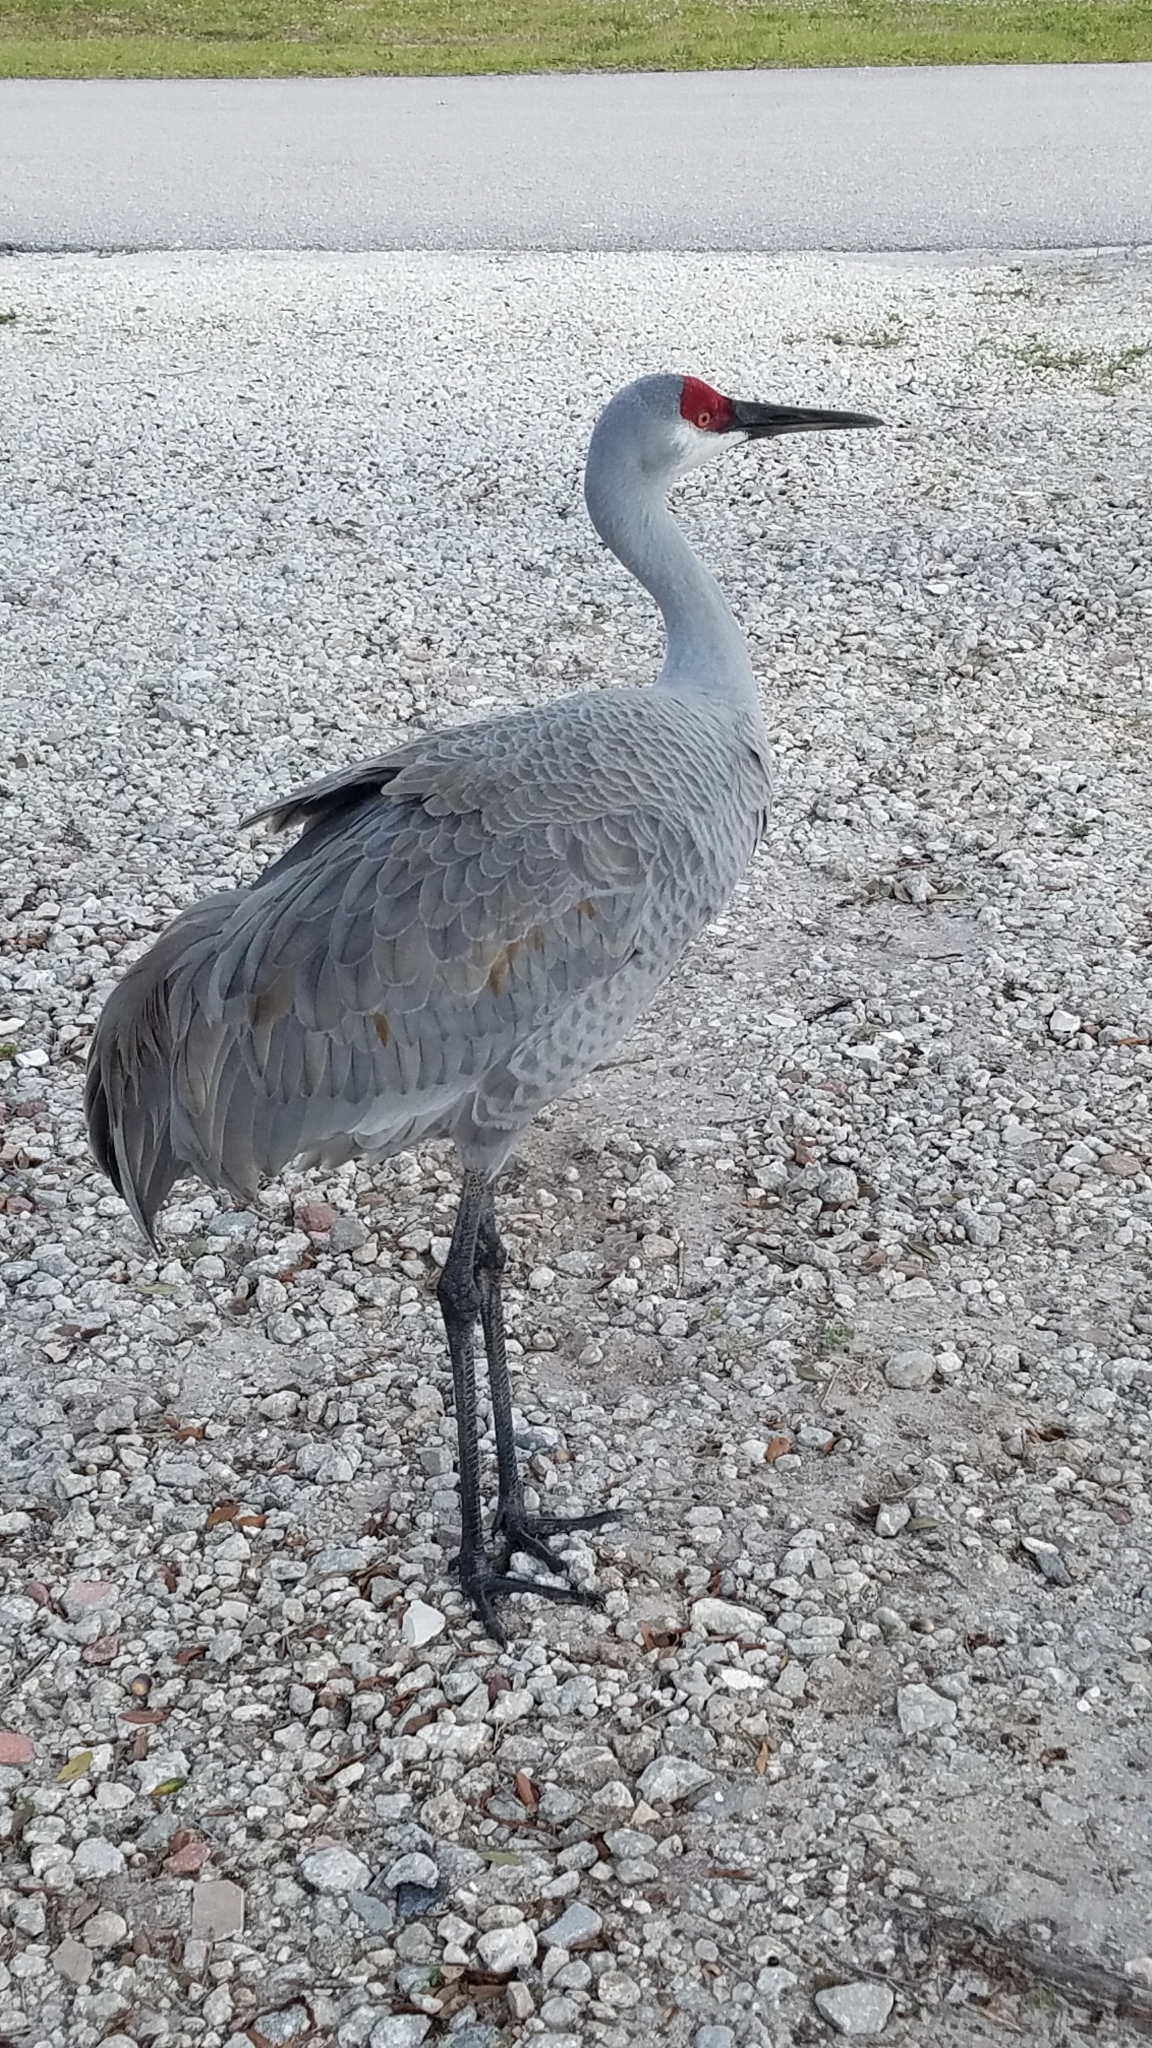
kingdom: Animalia
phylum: Chordata
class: Aves
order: Gruiformes
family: Gruidae
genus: Grus
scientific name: Grus canadensis
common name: Sandhill crane
